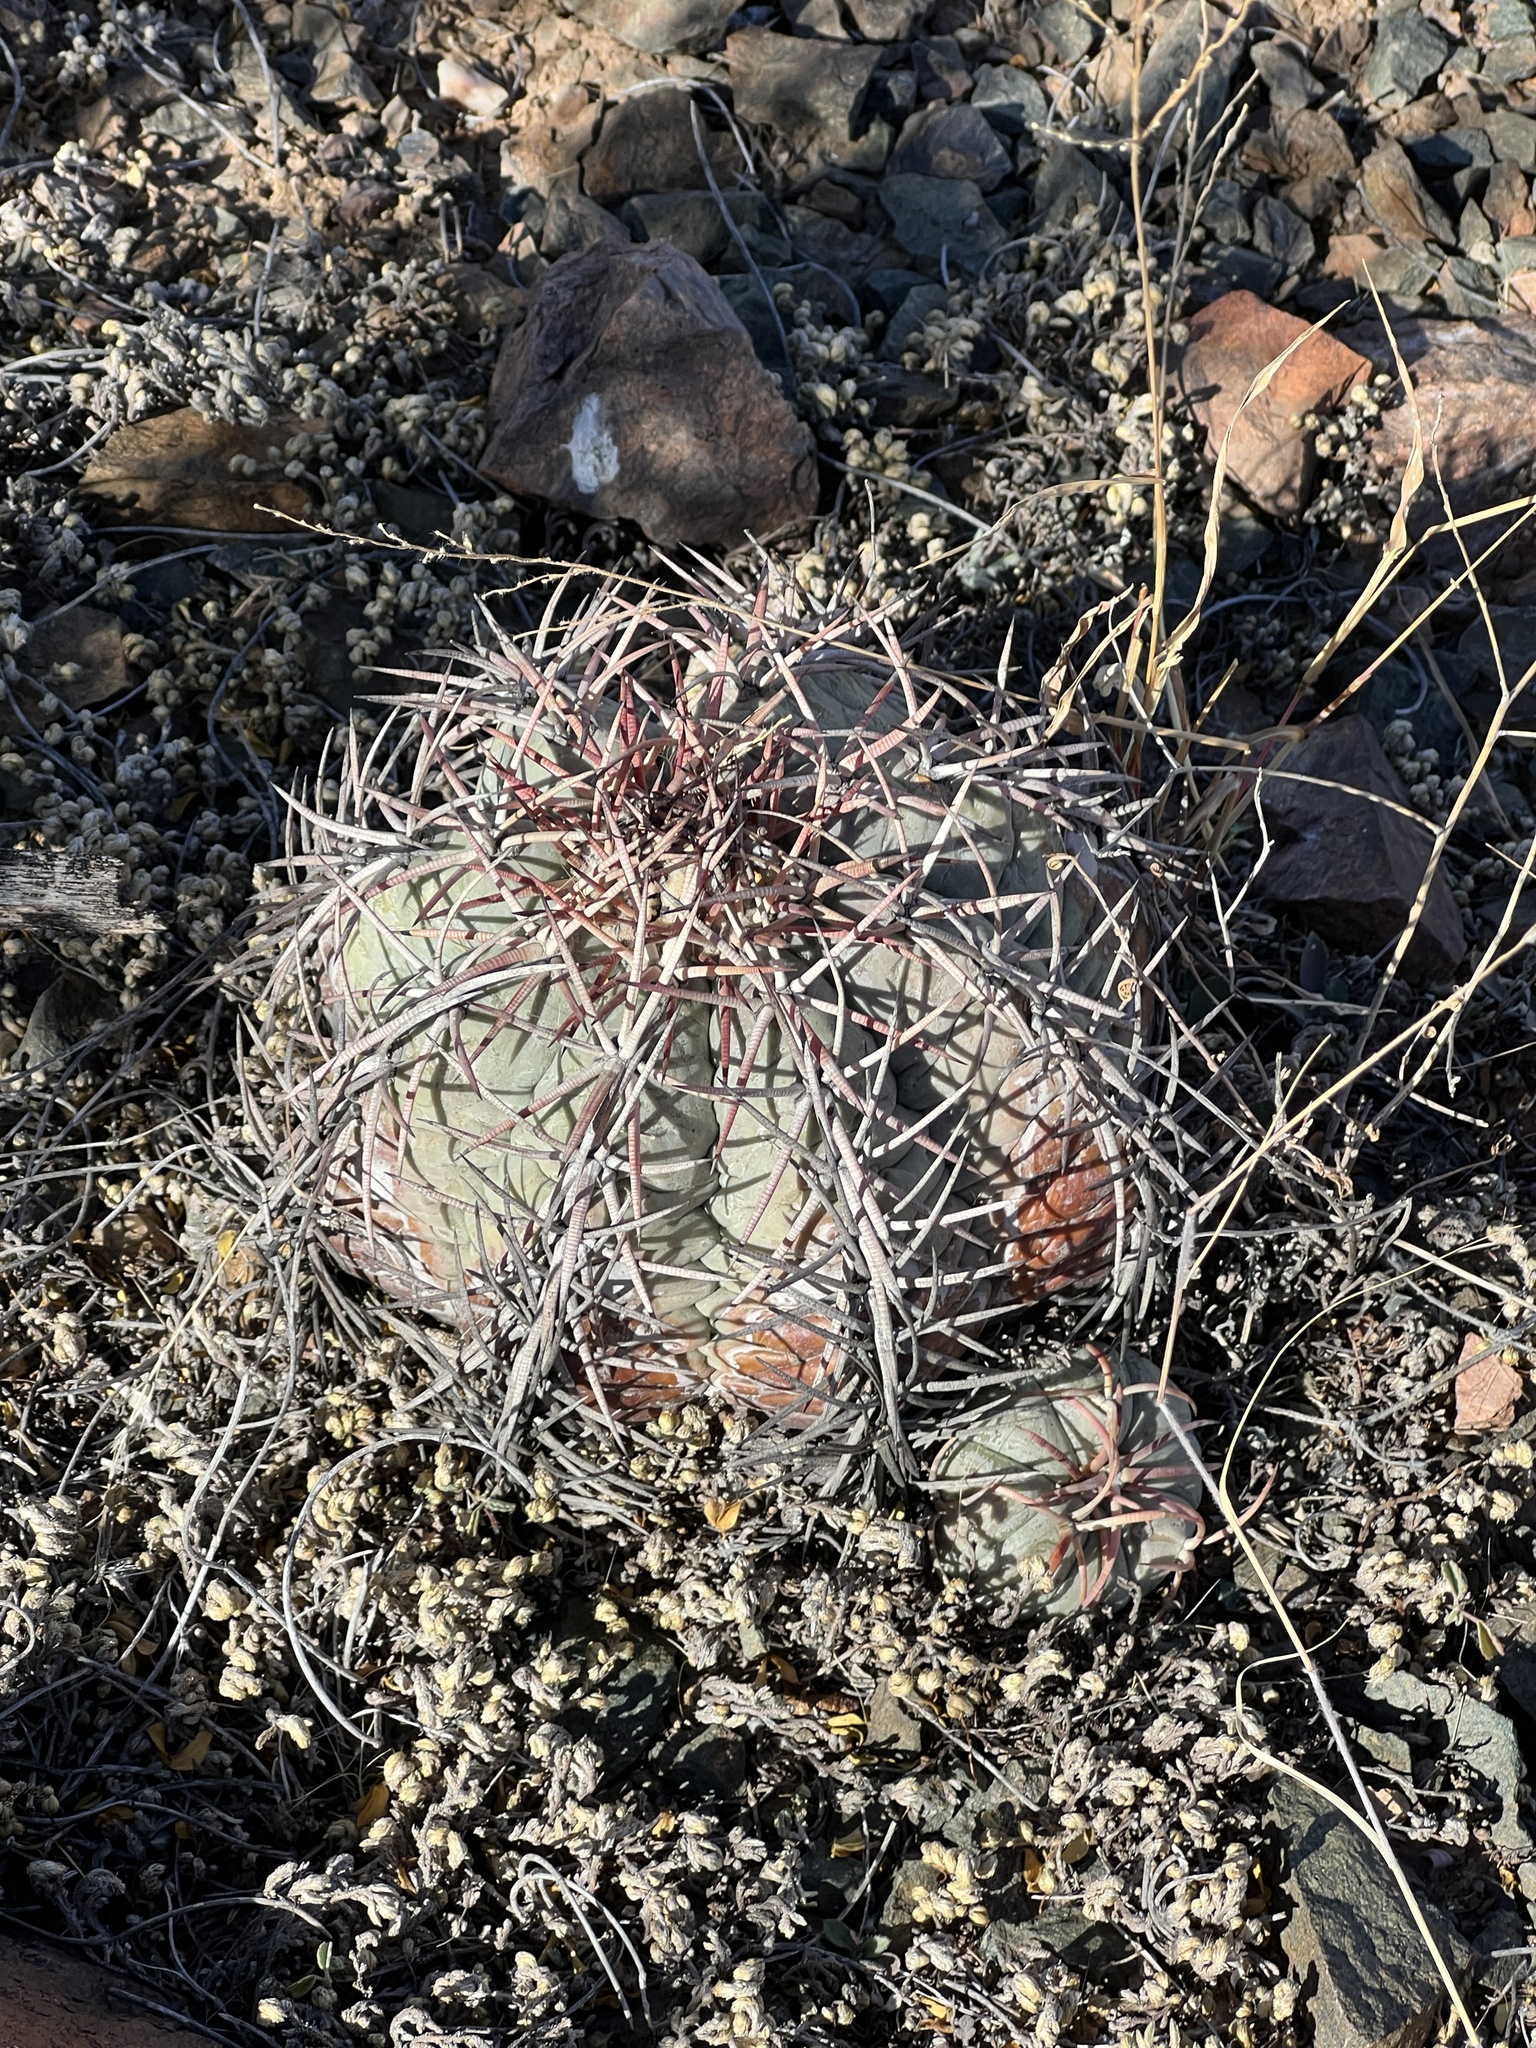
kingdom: Plantae
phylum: Tracheophyta
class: Magnoliopsida
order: Caryophyllales
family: Cactaceae
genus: Echinocactus
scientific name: Echinocactus horizonthalonius
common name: Devilshead
